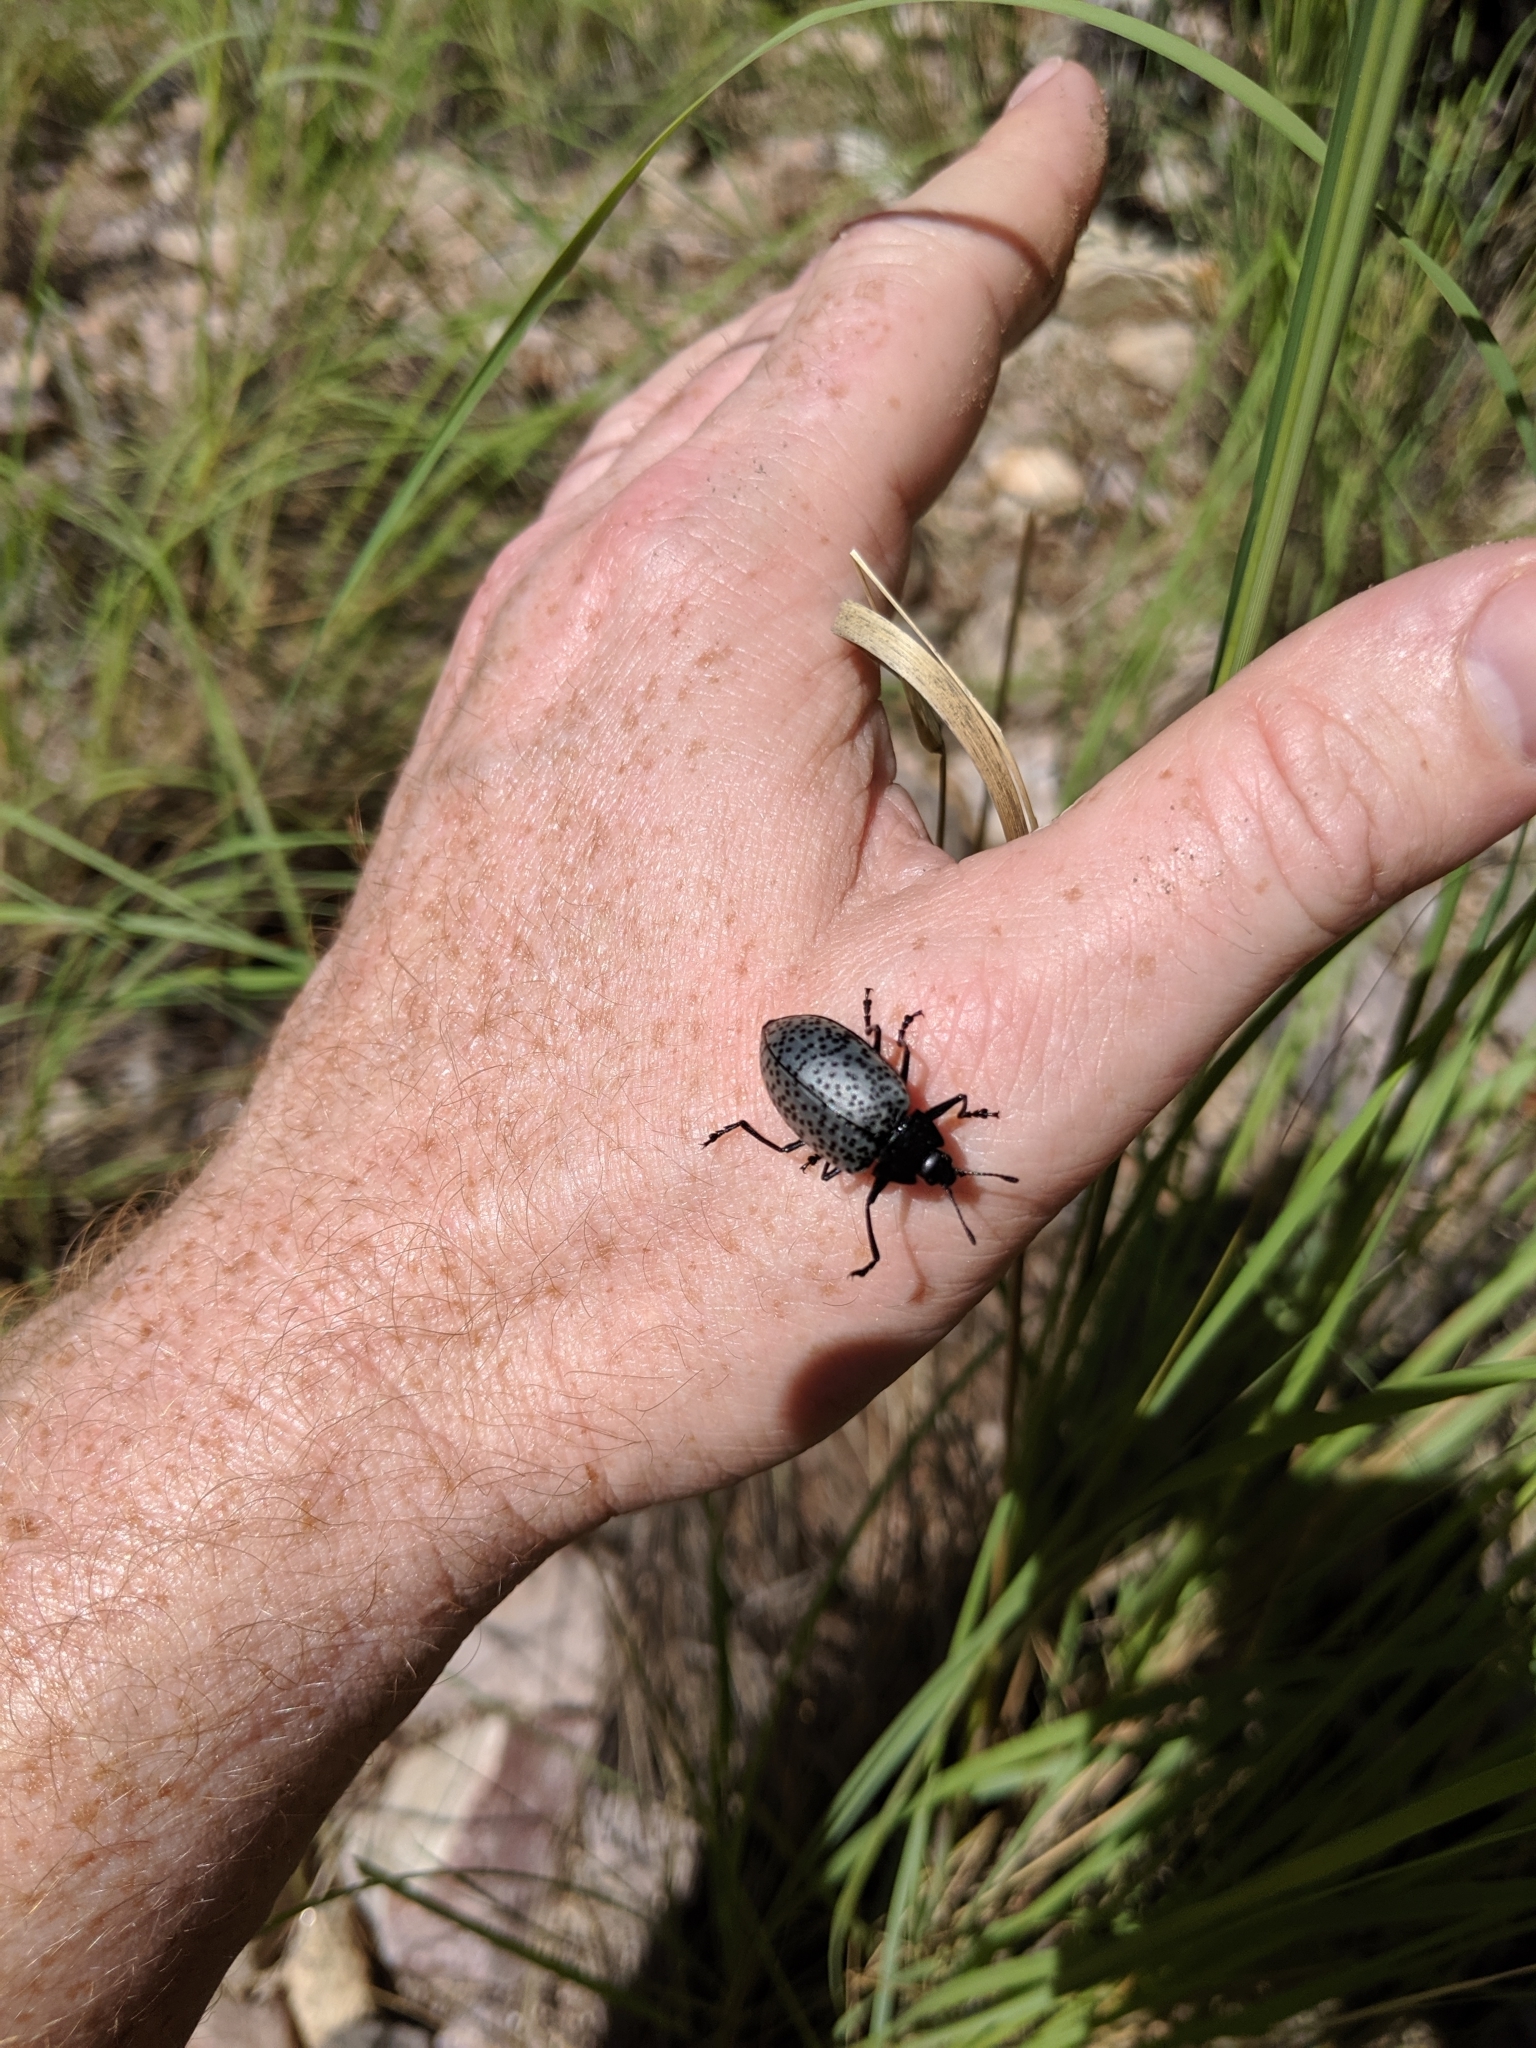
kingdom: Animalia
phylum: Arthropoda
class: Insecta
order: Coleoptera
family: Erotylidae
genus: Gibbifer
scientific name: Gibbifer californicus
